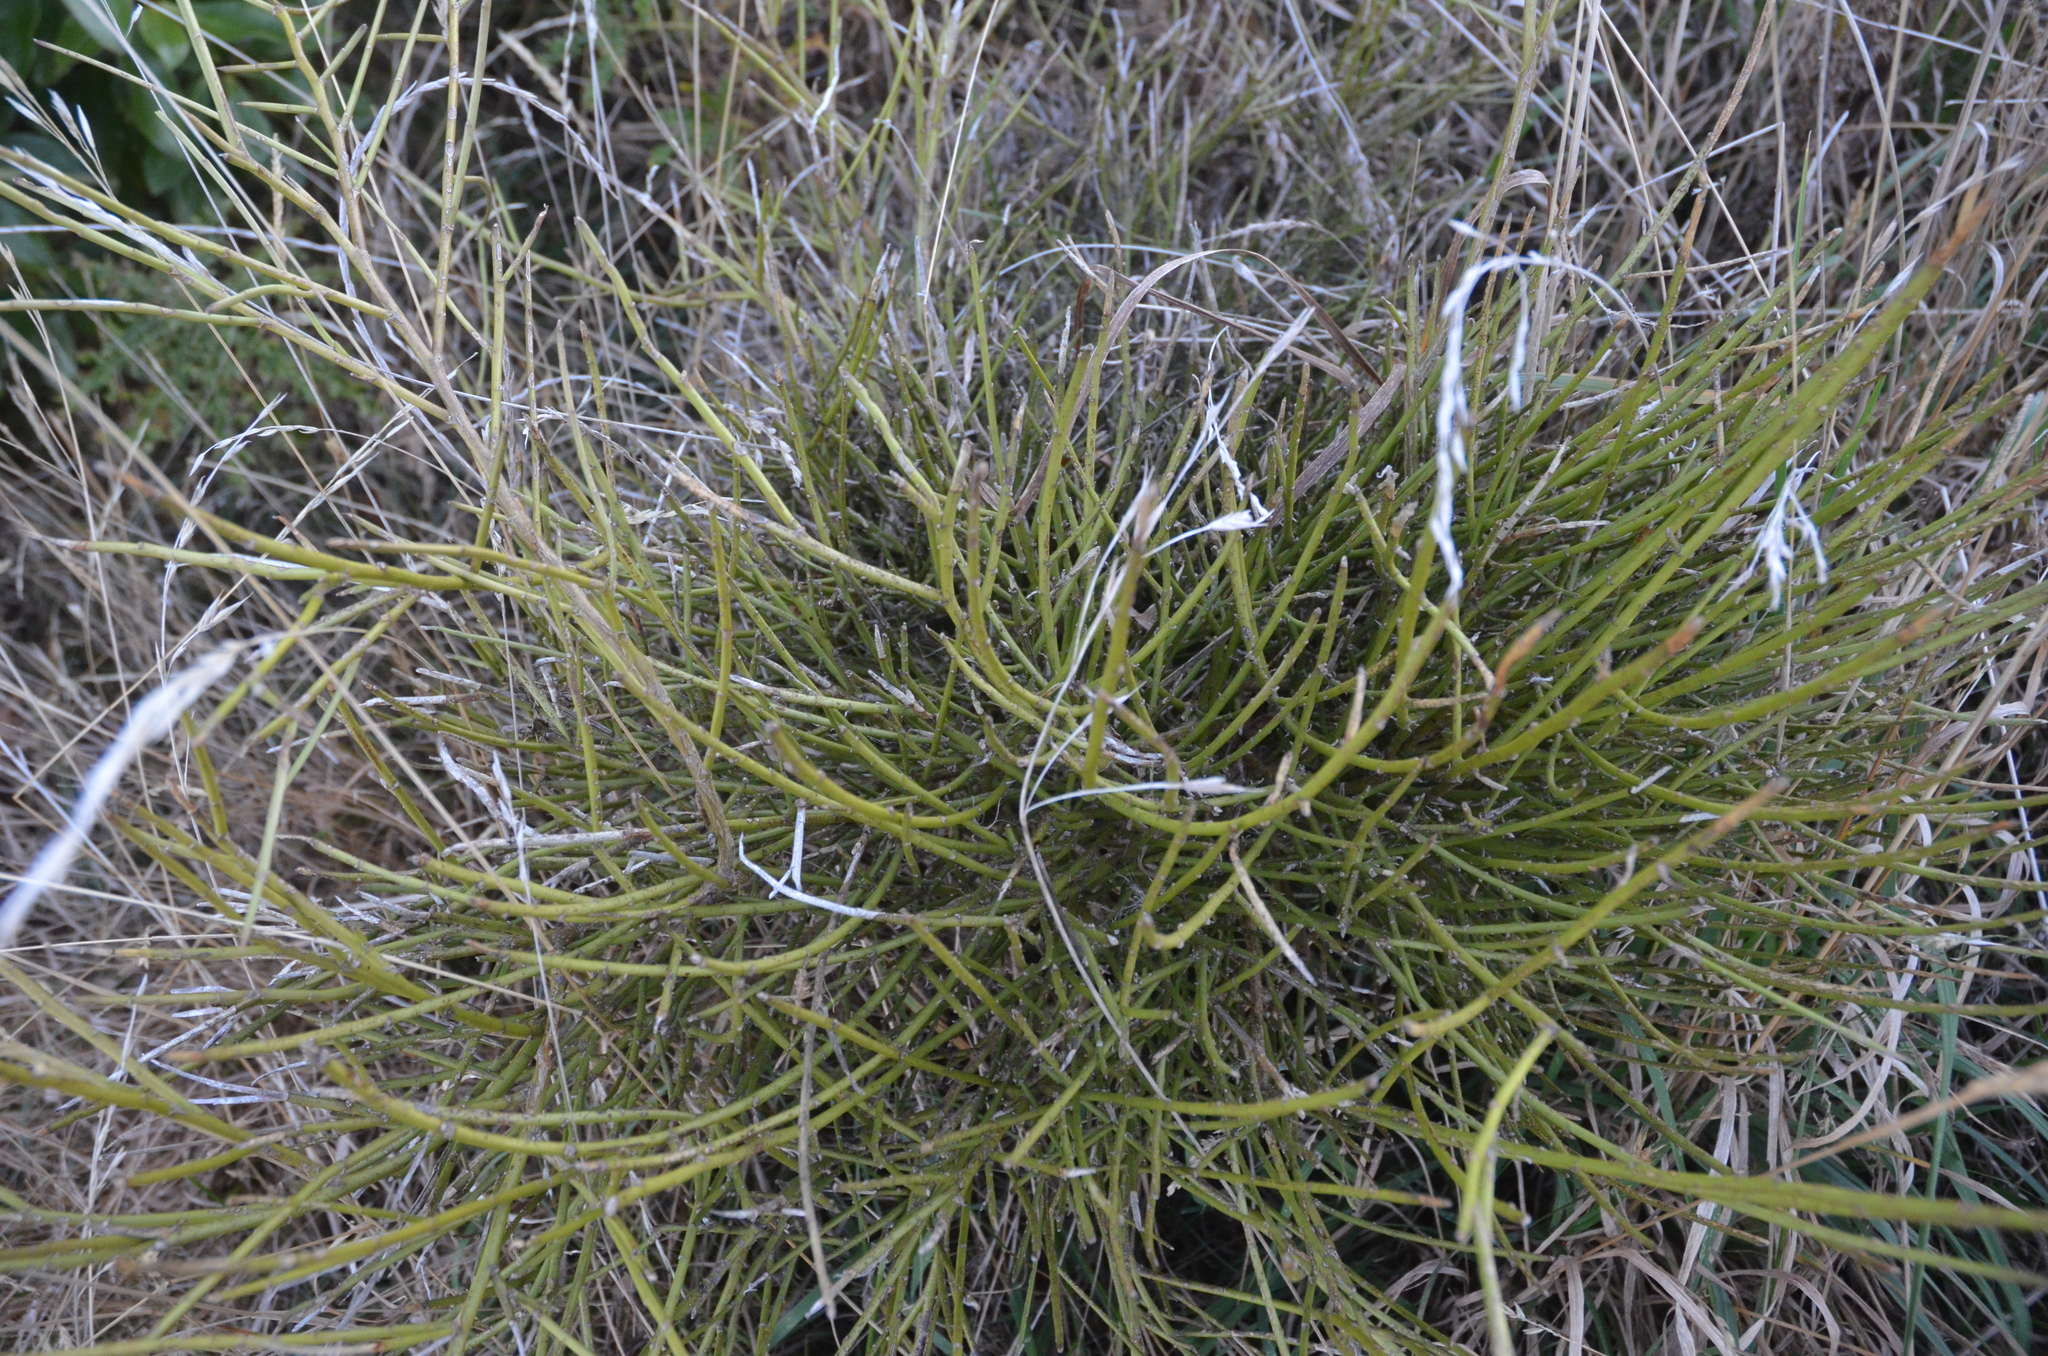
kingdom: Plantae
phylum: Tracheophyta
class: Magnoliopsida
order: Fabales
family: Fabaceae
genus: Carmichaelia
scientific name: Carmichaelia australis
